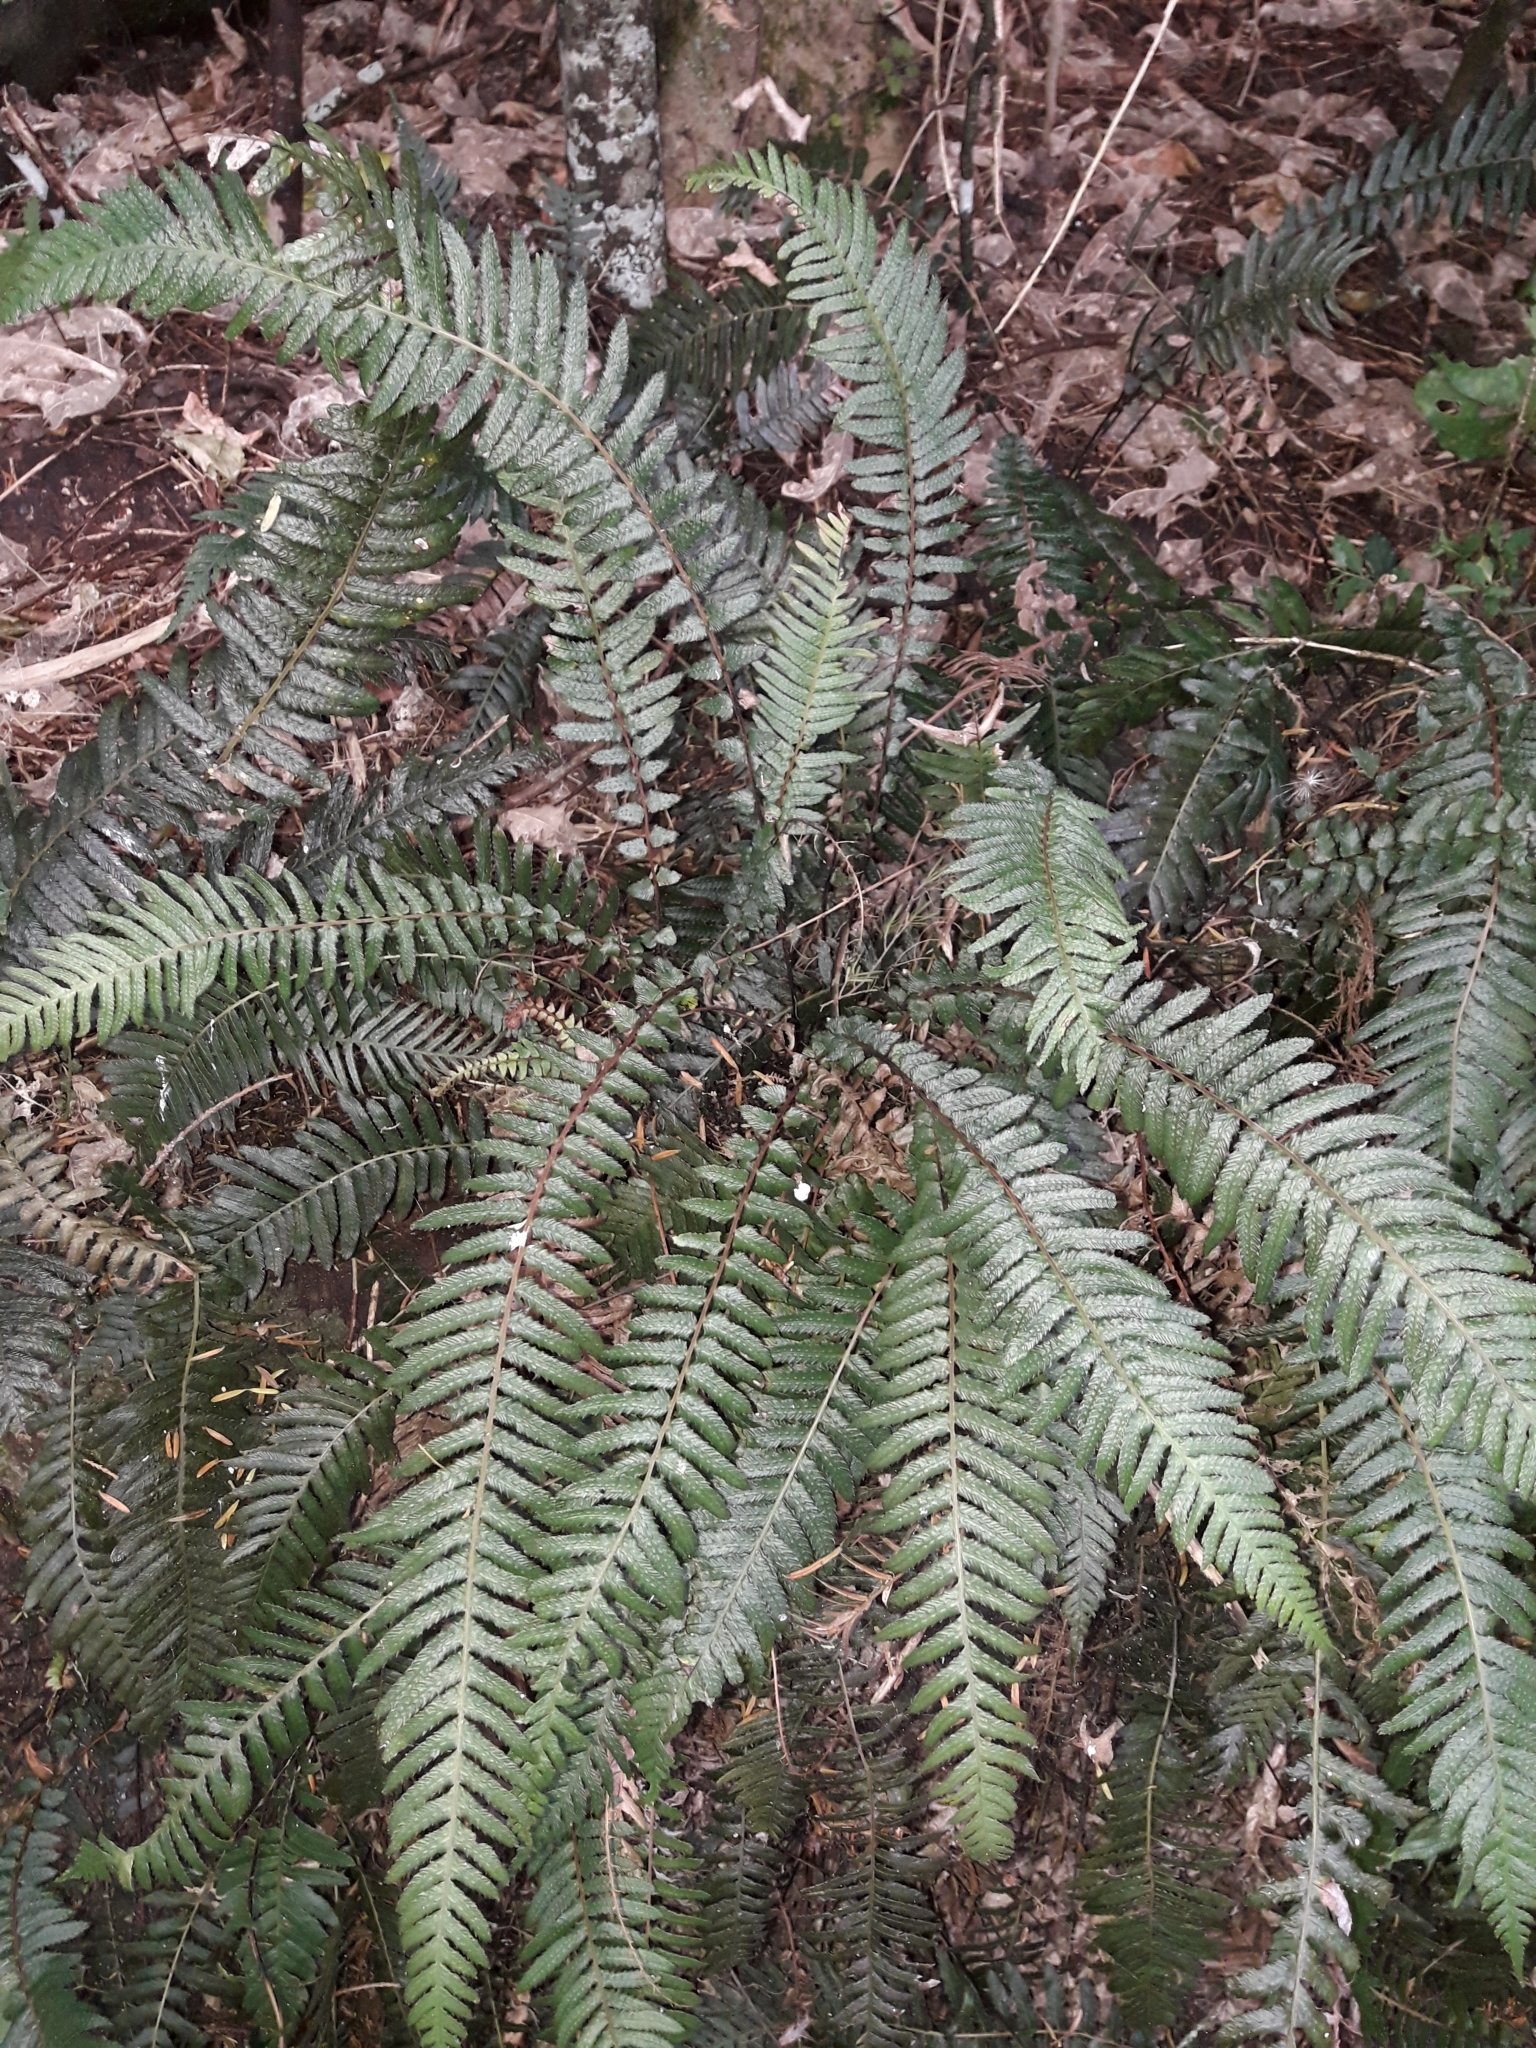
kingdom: Plantae
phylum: Tracheophyta
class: Polypodiopsida
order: Polypodiales
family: Blechnaceae
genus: Doodia
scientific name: Doodia australis
